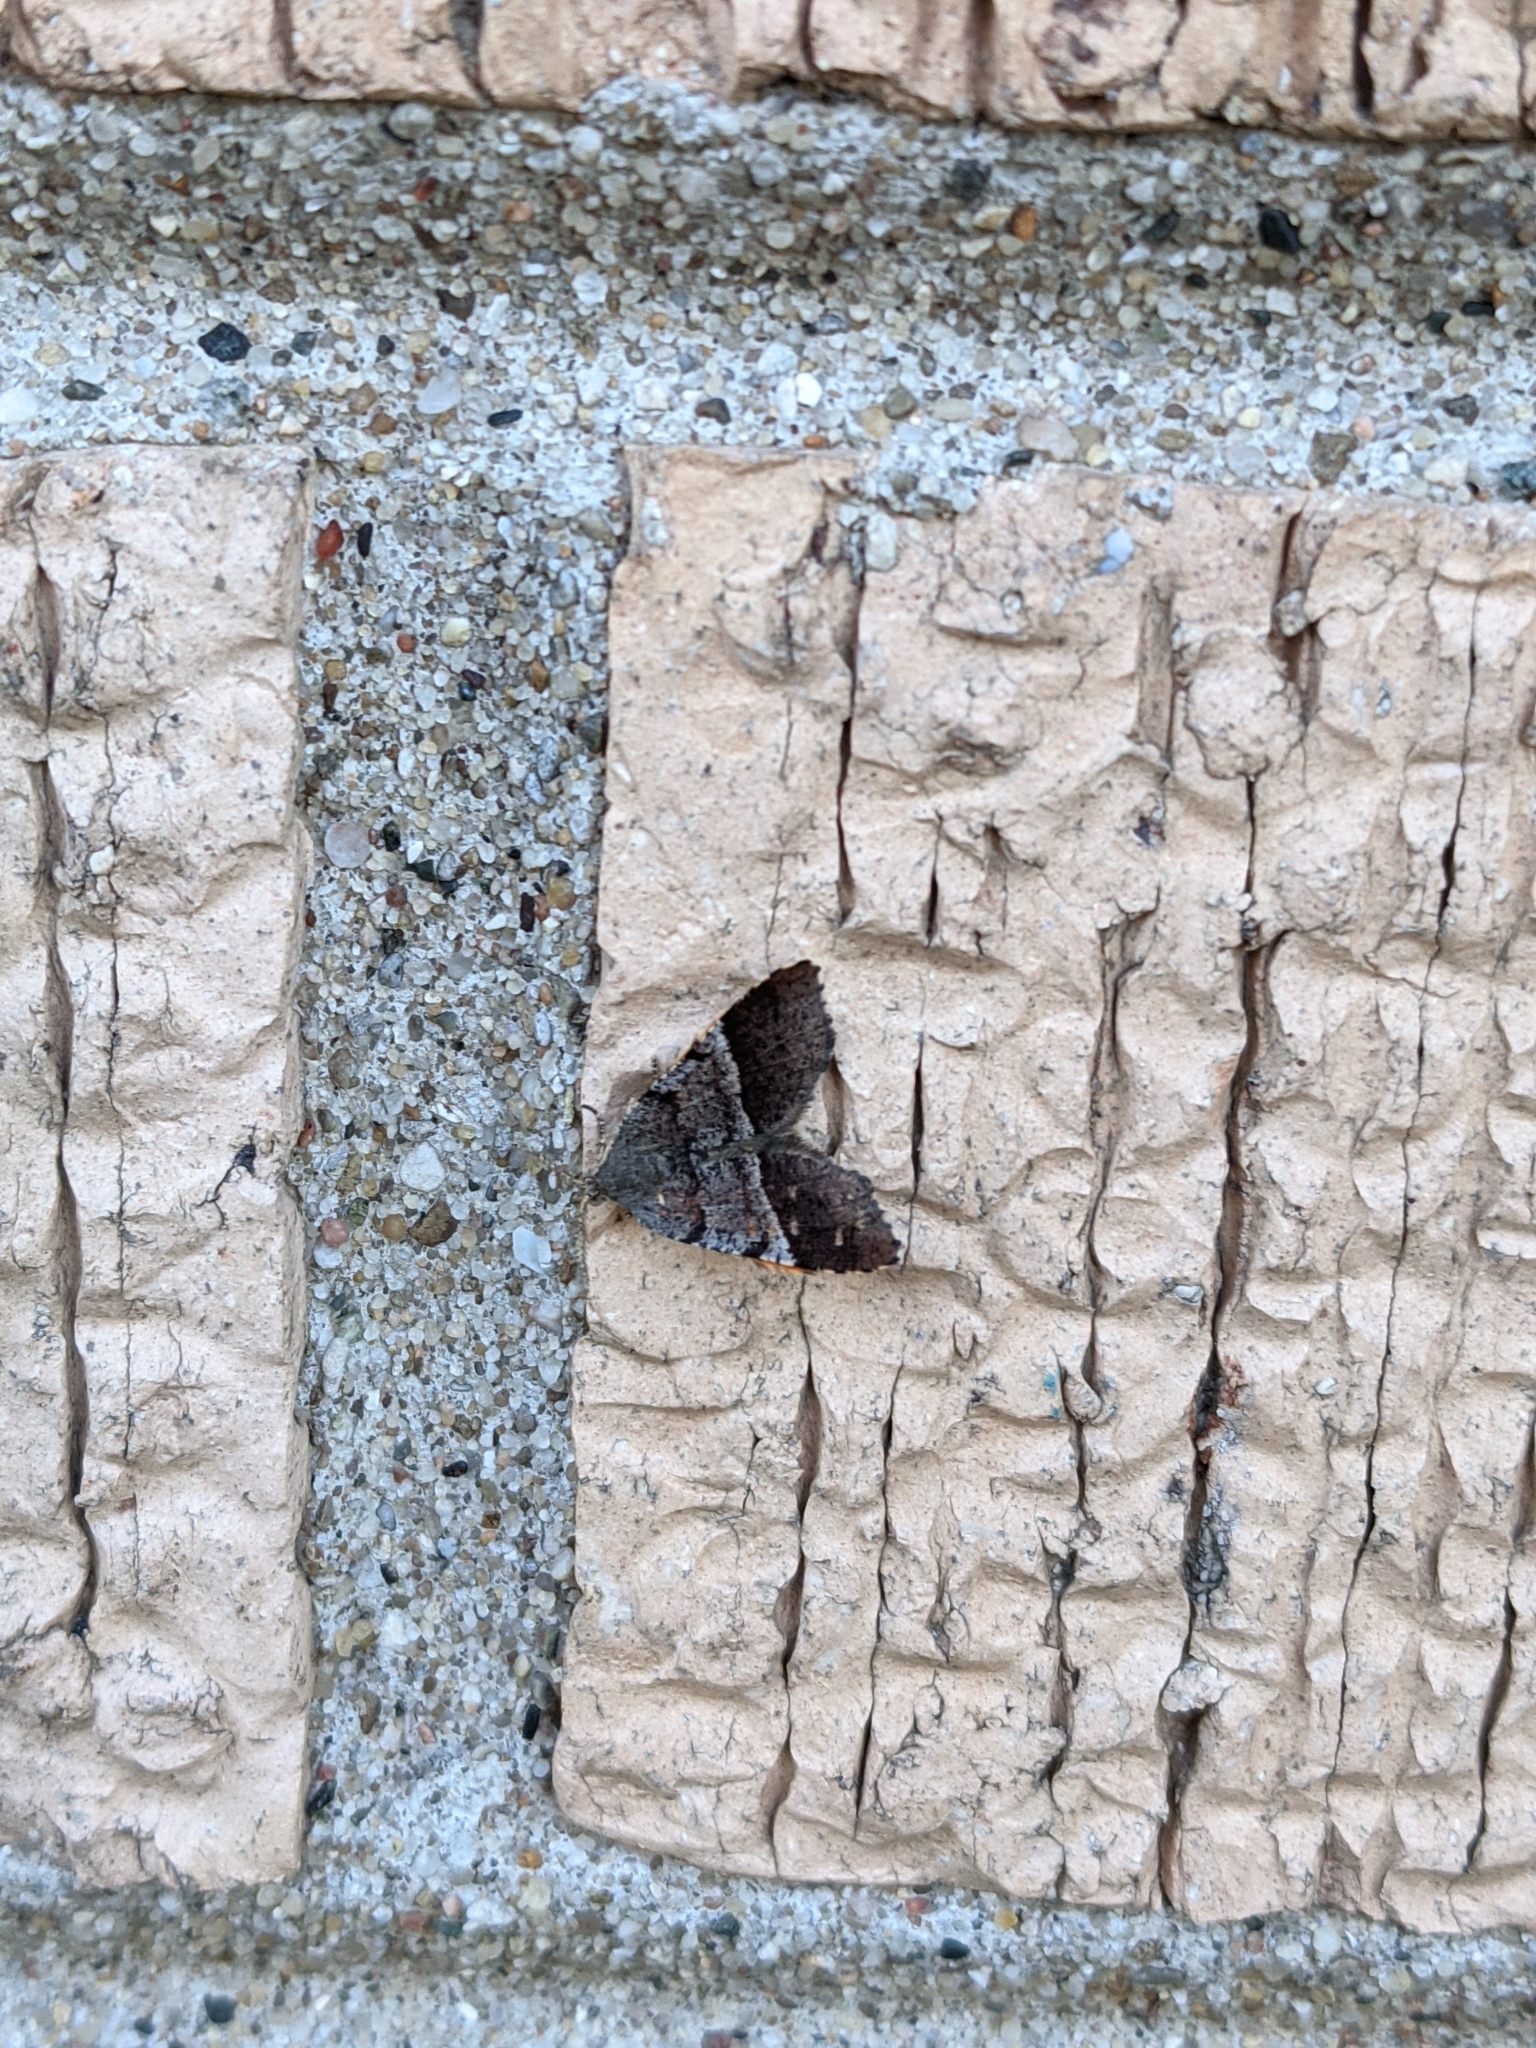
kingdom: Animalia
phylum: Arthropoda
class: Insecta
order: Lepidoptera
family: Geometridae
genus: Mellilla
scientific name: Mellilla xanthometata
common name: Orange wing moth
